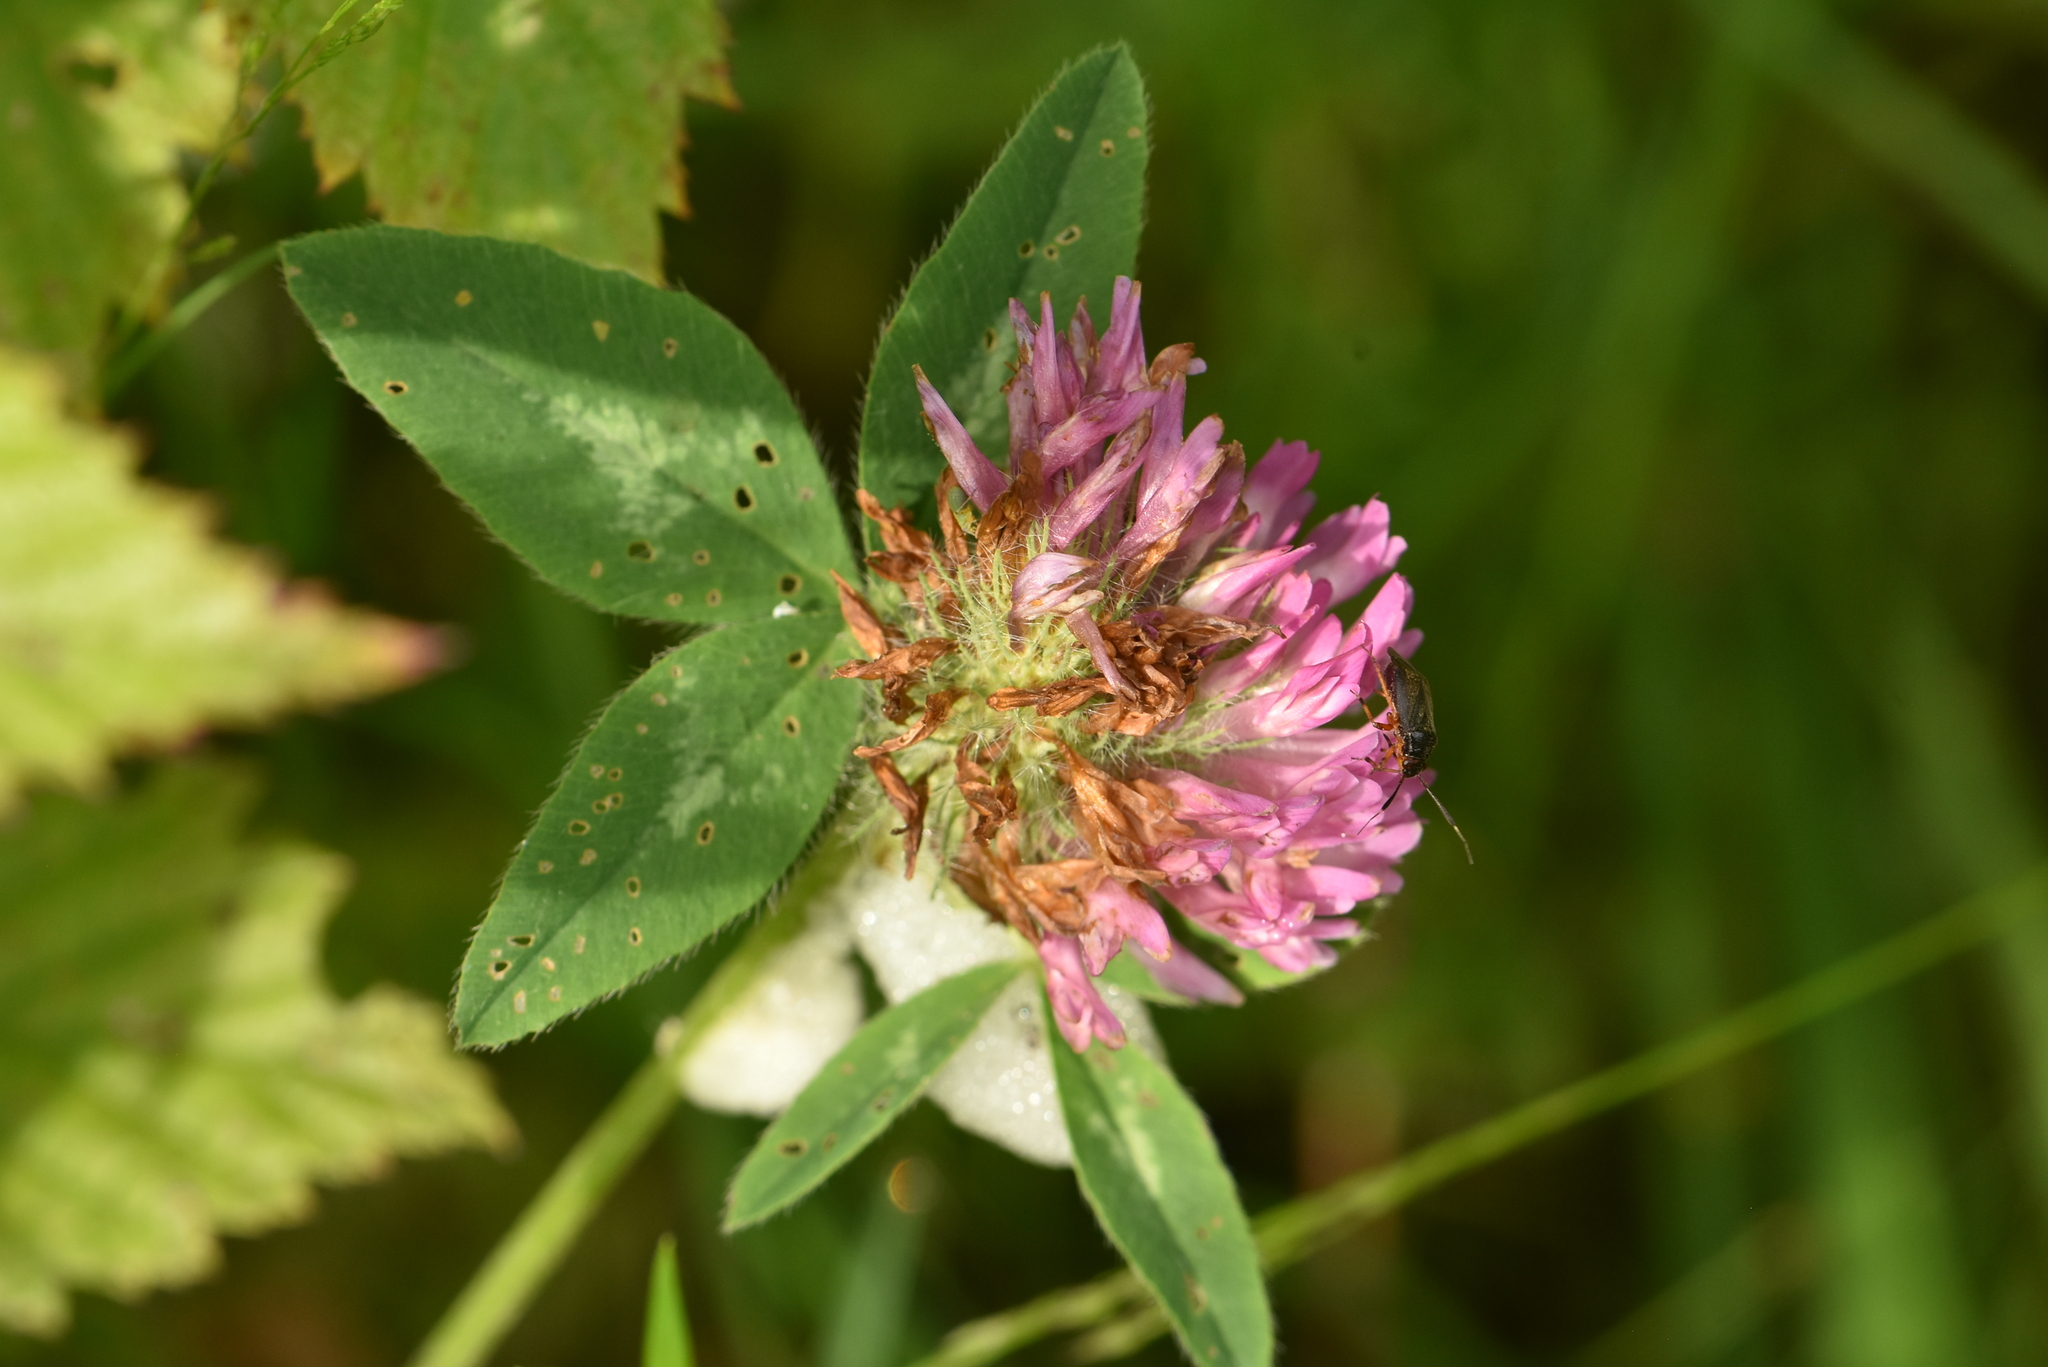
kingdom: Plantae
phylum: Tracheophyta
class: Magnoliopsida
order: Fabales
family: Fabaceae
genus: Trifolium
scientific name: Trifolium pratense
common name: Red clover
